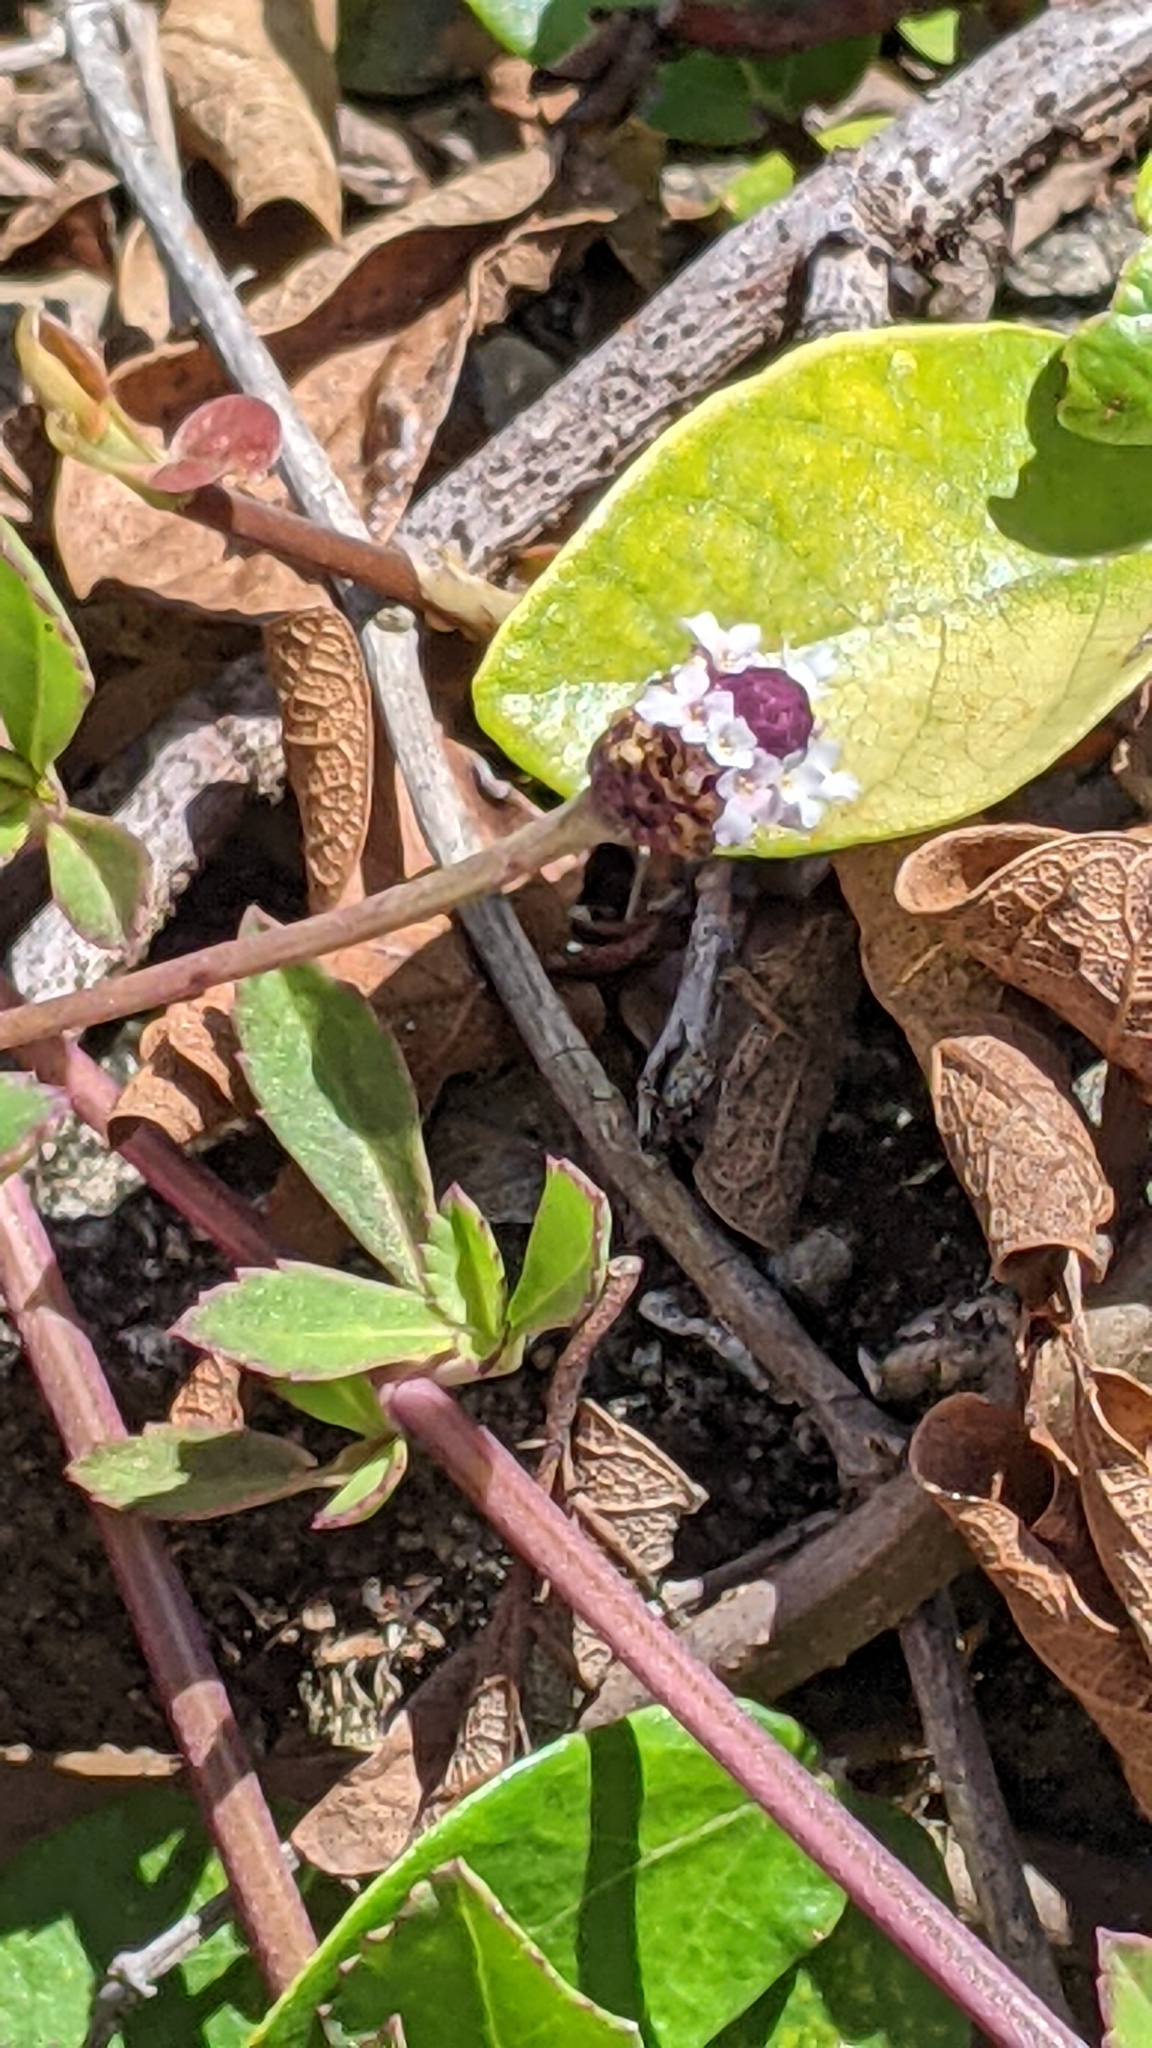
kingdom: Plantae
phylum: Tracheophyta
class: Magnoliopsida
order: Lamiales
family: Verbenaceae
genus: Phyla
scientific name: Phyla nodiflora
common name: Frogfruit
